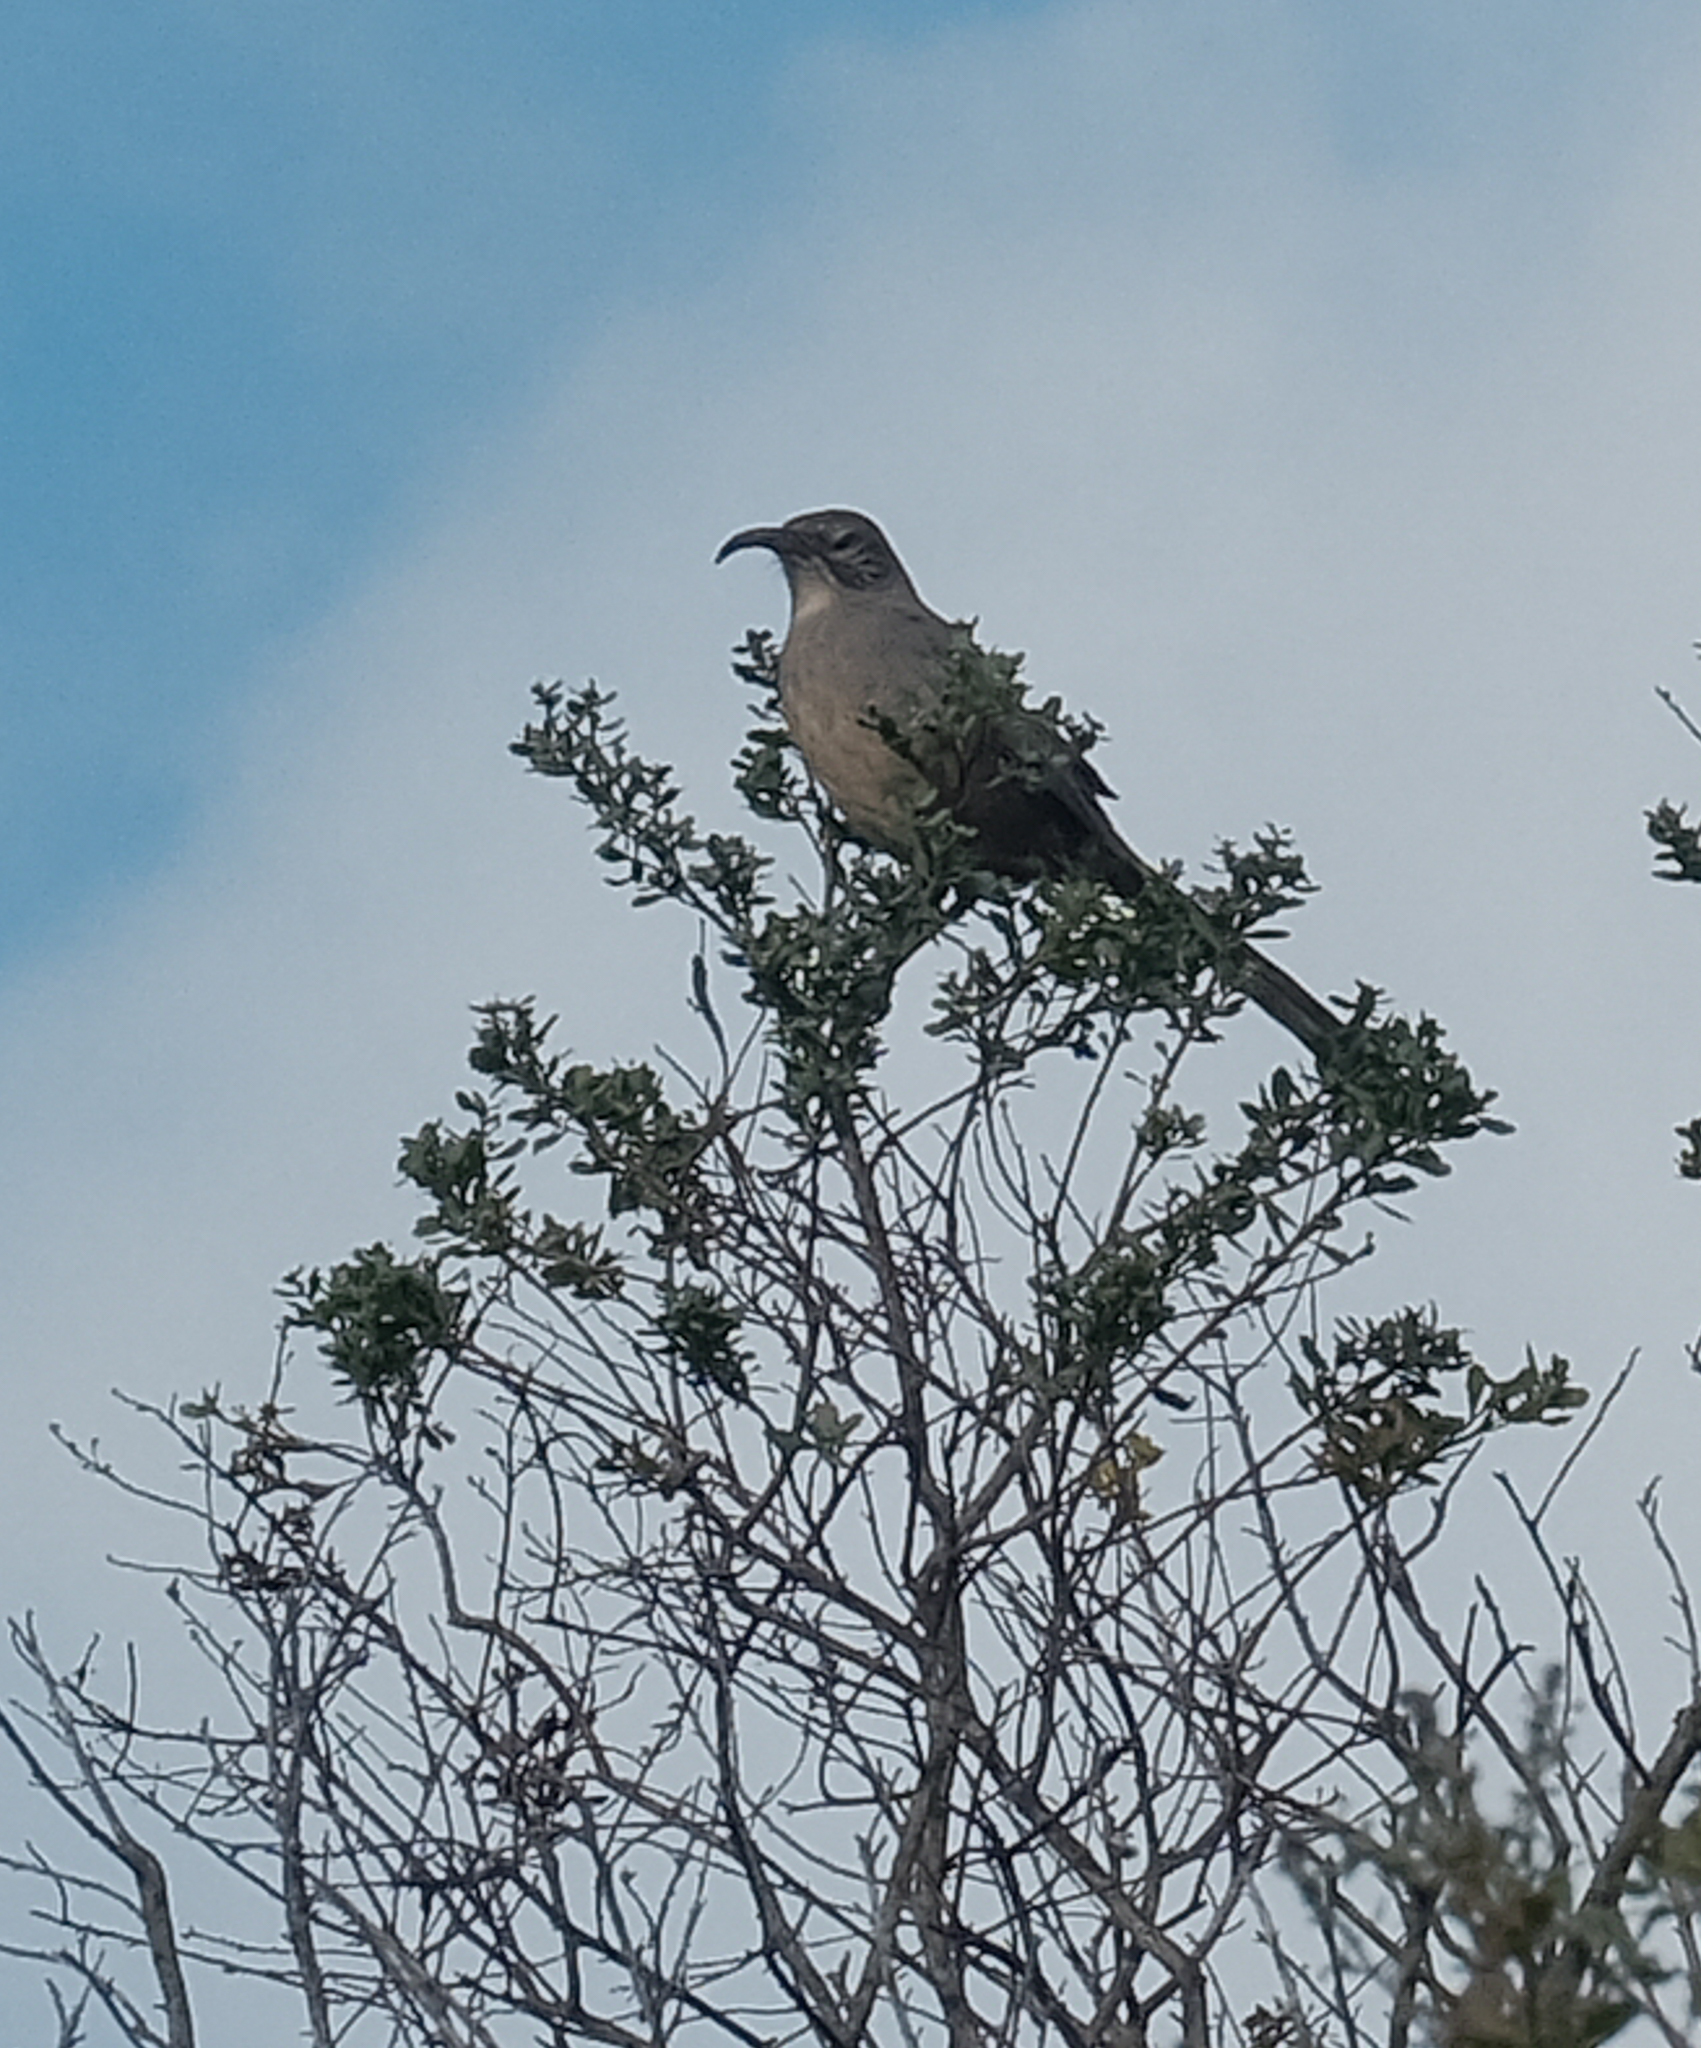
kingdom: Animalia
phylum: Chordata
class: Aves
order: Passeriformes
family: Mimidae
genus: Toxostoma
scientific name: Toxostoma redivivum
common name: California thrasher
